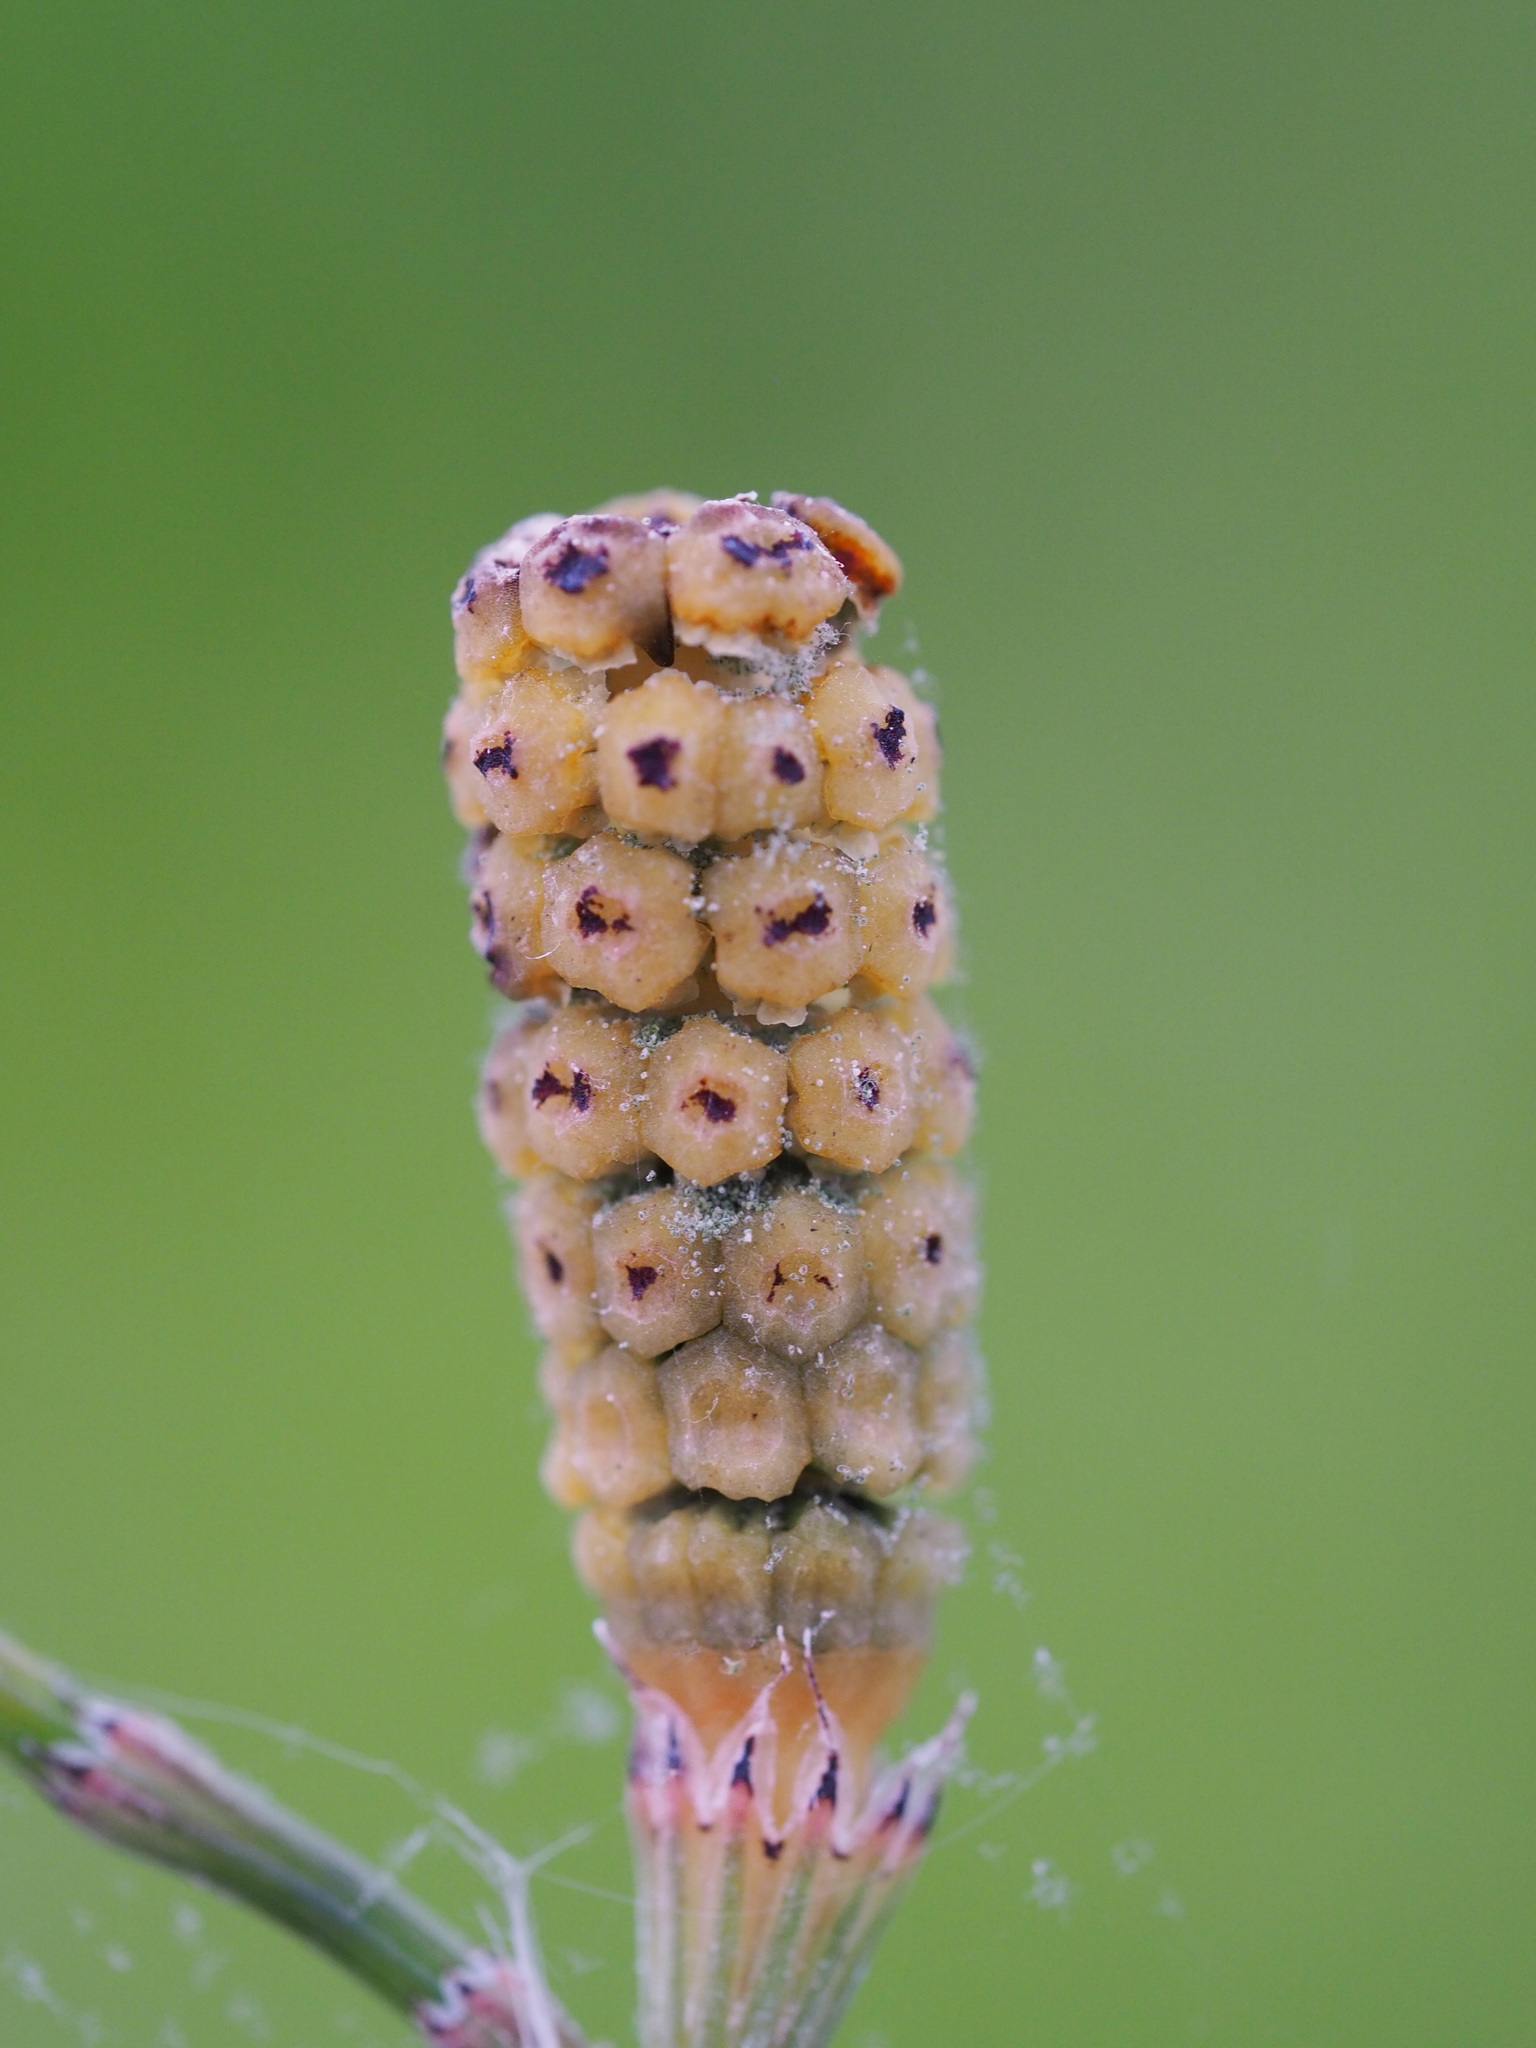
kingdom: Plantae
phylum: Tracheophyta
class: Polypodiopsida
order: Equisetales
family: Equisetaceae
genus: Equisetum
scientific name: Equisetum ramosissimum
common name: Branched horsetail
